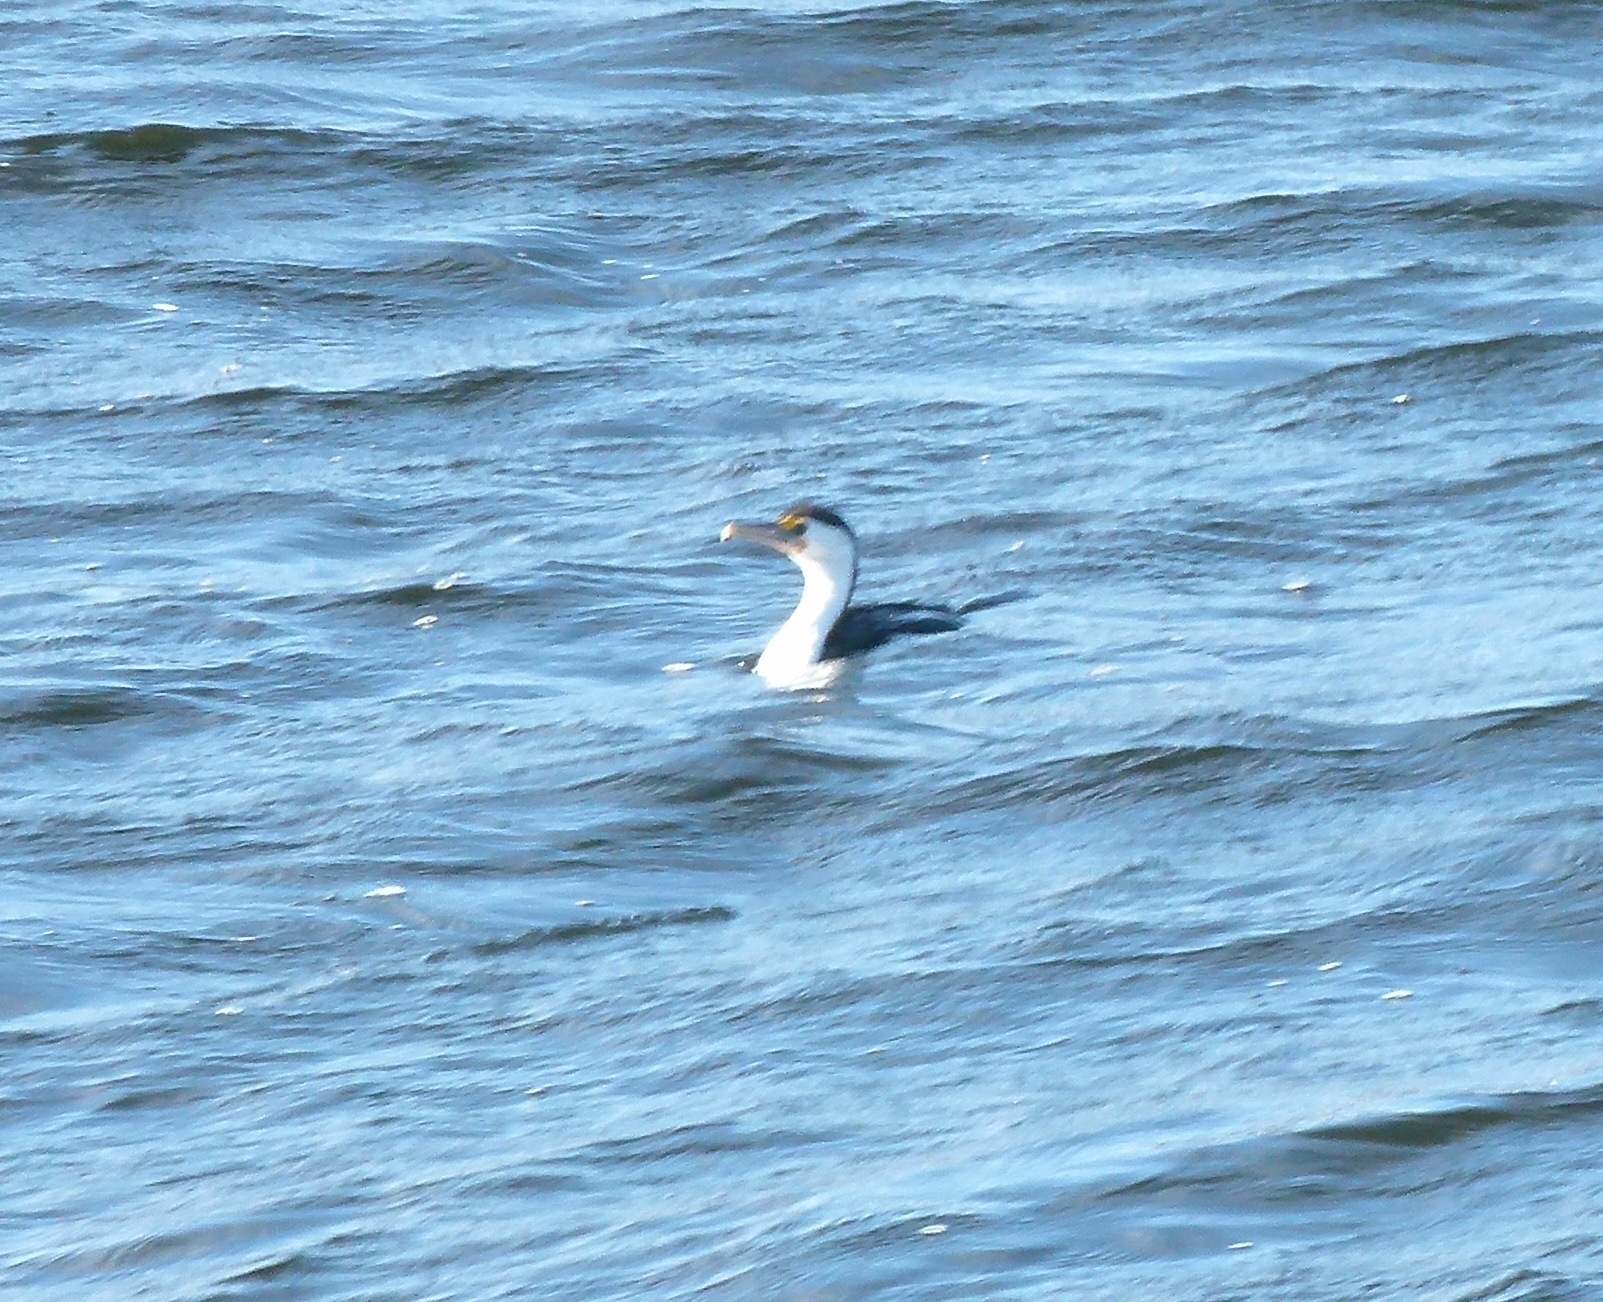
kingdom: Animalia
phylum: Chordata
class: Aves
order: Suliformes
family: Phalacrocoracidae
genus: Phalacrocorax
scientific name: Phalacrocorax varius
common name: Pied cormorant
